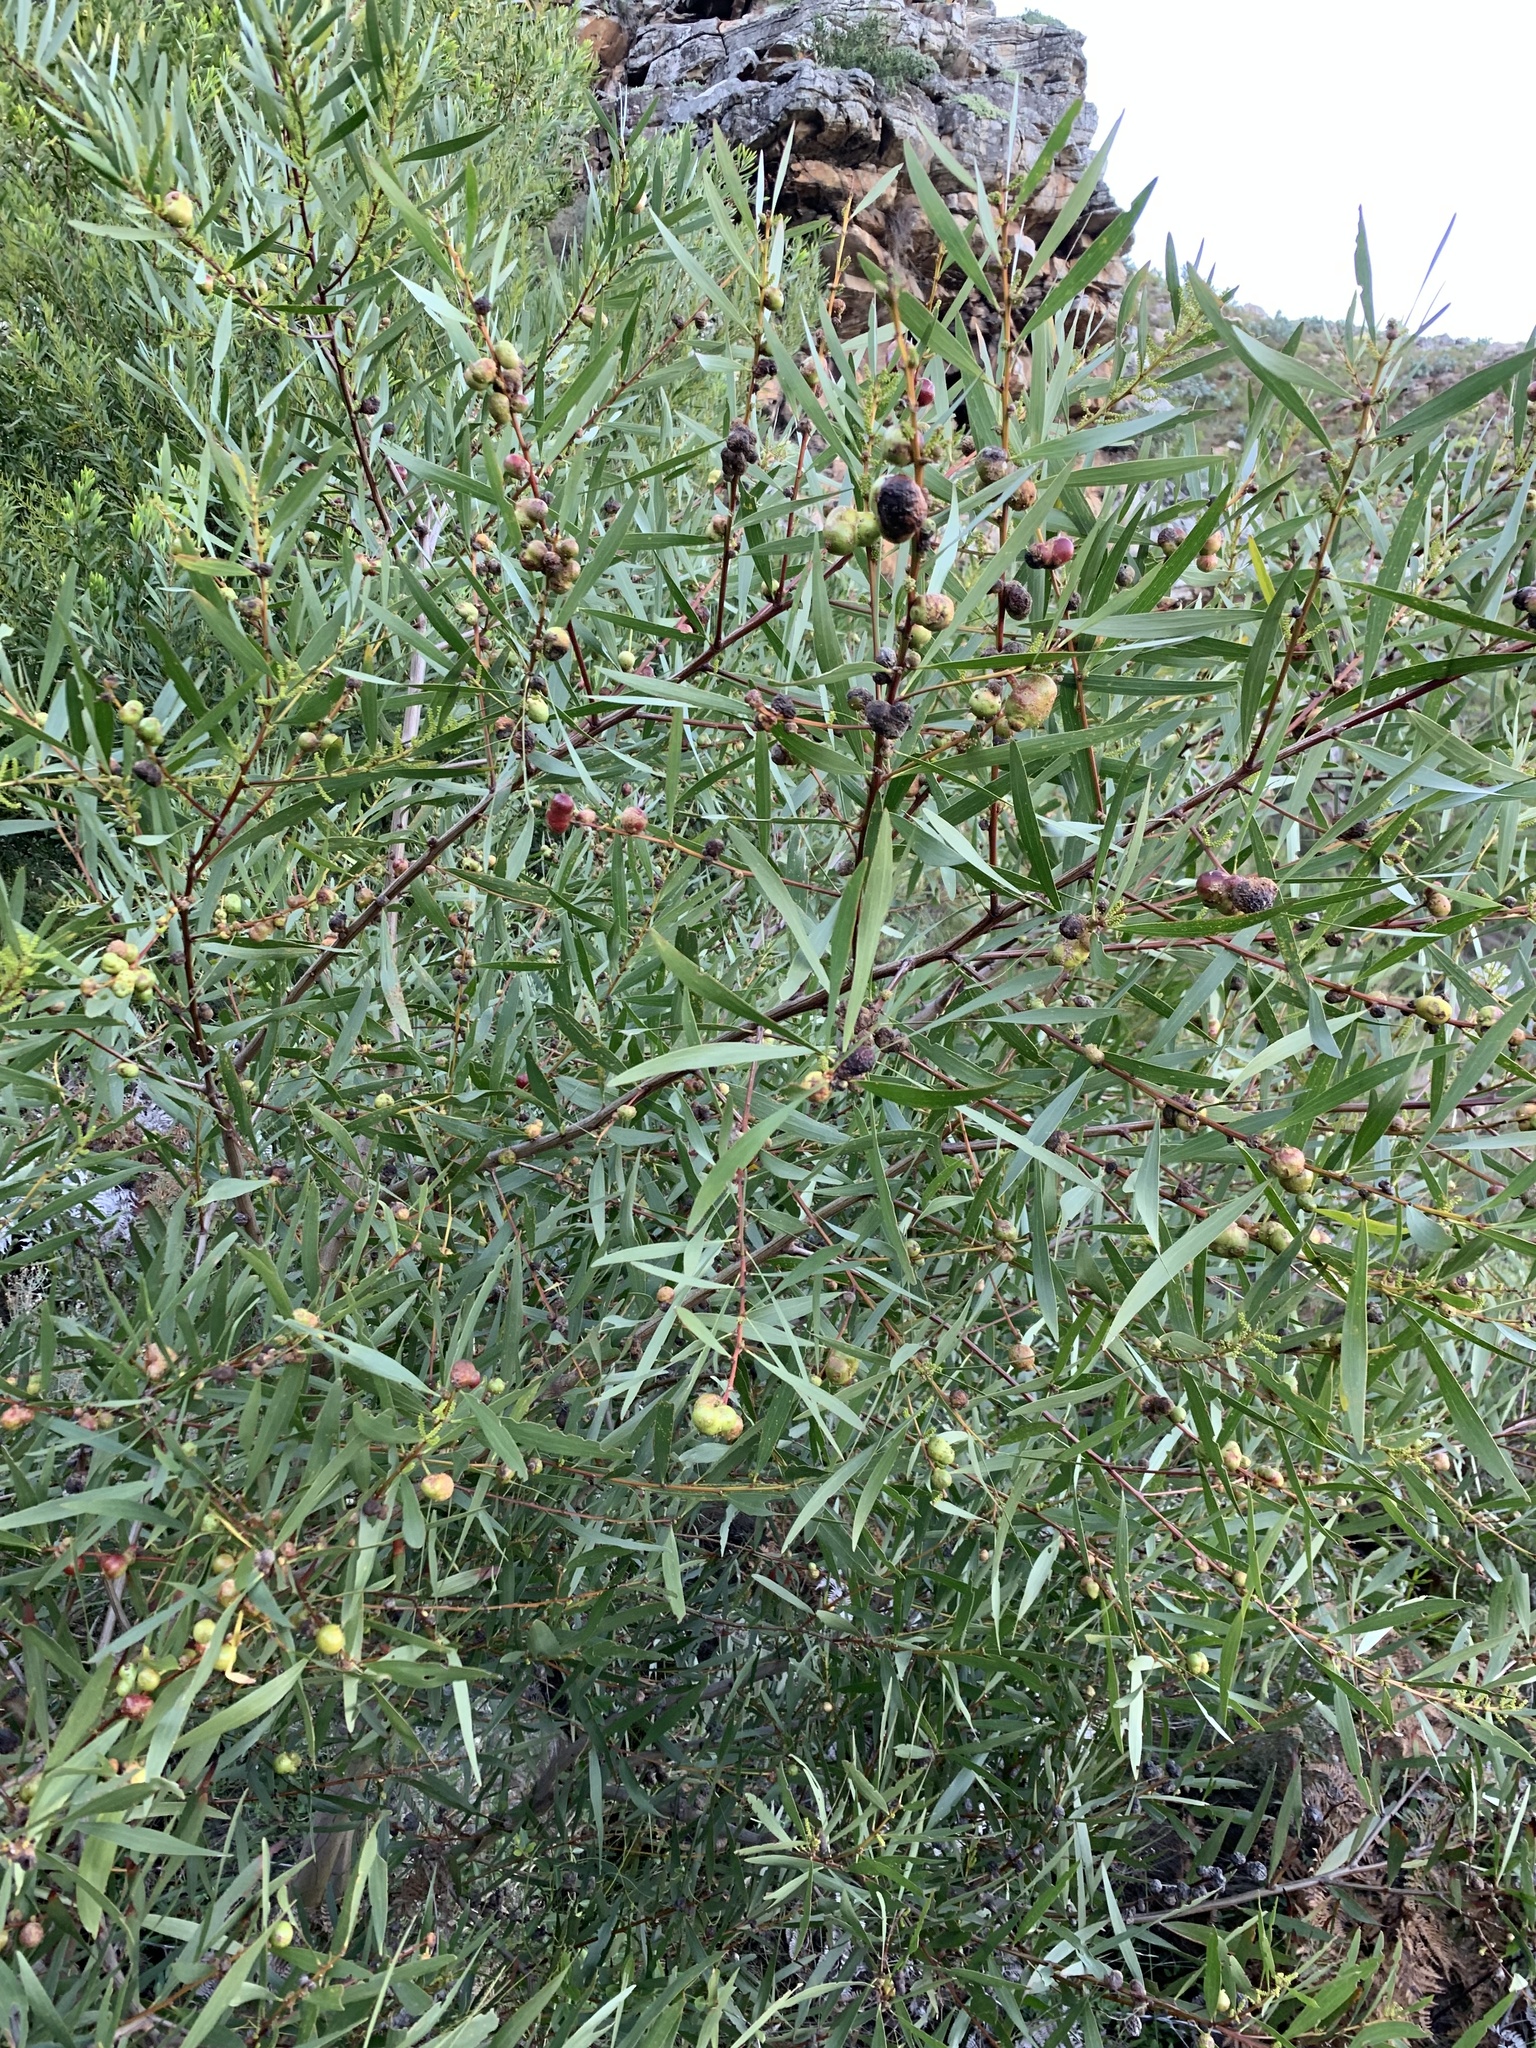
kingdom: Plantae
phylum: Tracheophyta
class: Magnoliopsida
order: Fabales
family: Fabaceae
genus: Acacia
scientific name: Acacia longifolia
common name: Sydney golden wattle
